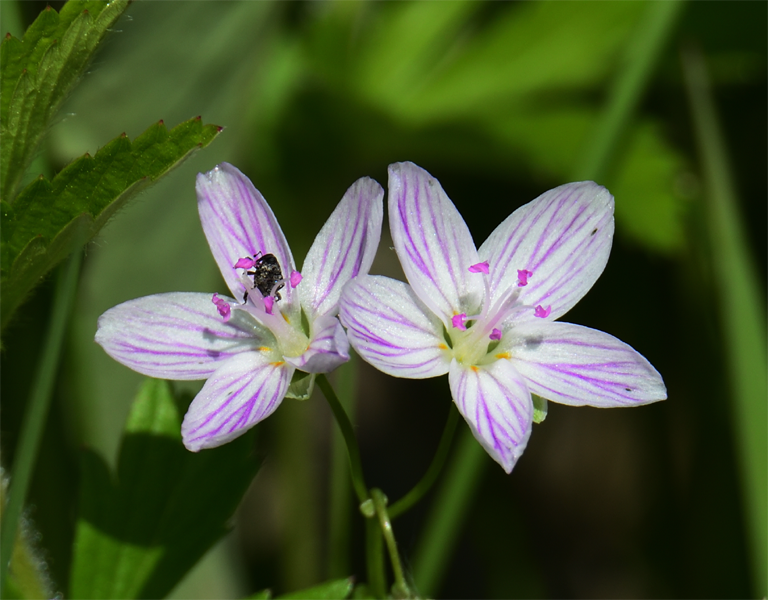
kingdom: Plantae
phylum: Tracheophyta
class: Magnoliopsida
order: Caryophyllales
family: Montiaceae
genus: Claytonia
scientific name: Claytonia virginica
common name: Virginia springbeauty
